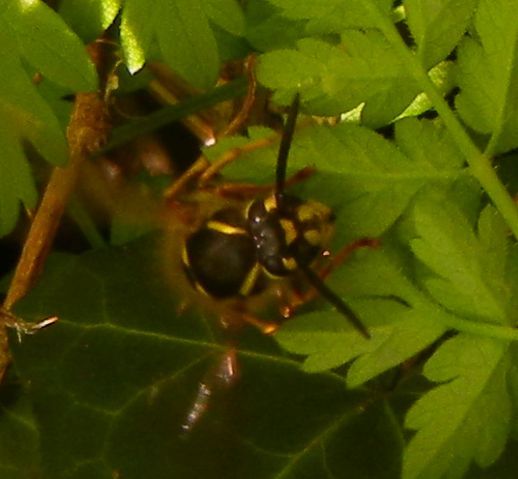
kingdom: Animalia
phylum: Arthropoda
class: Insecta
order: Hymenoptera
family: Vespidae
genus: Vespula
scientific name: Vespula vulgaris
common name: Common wasp
